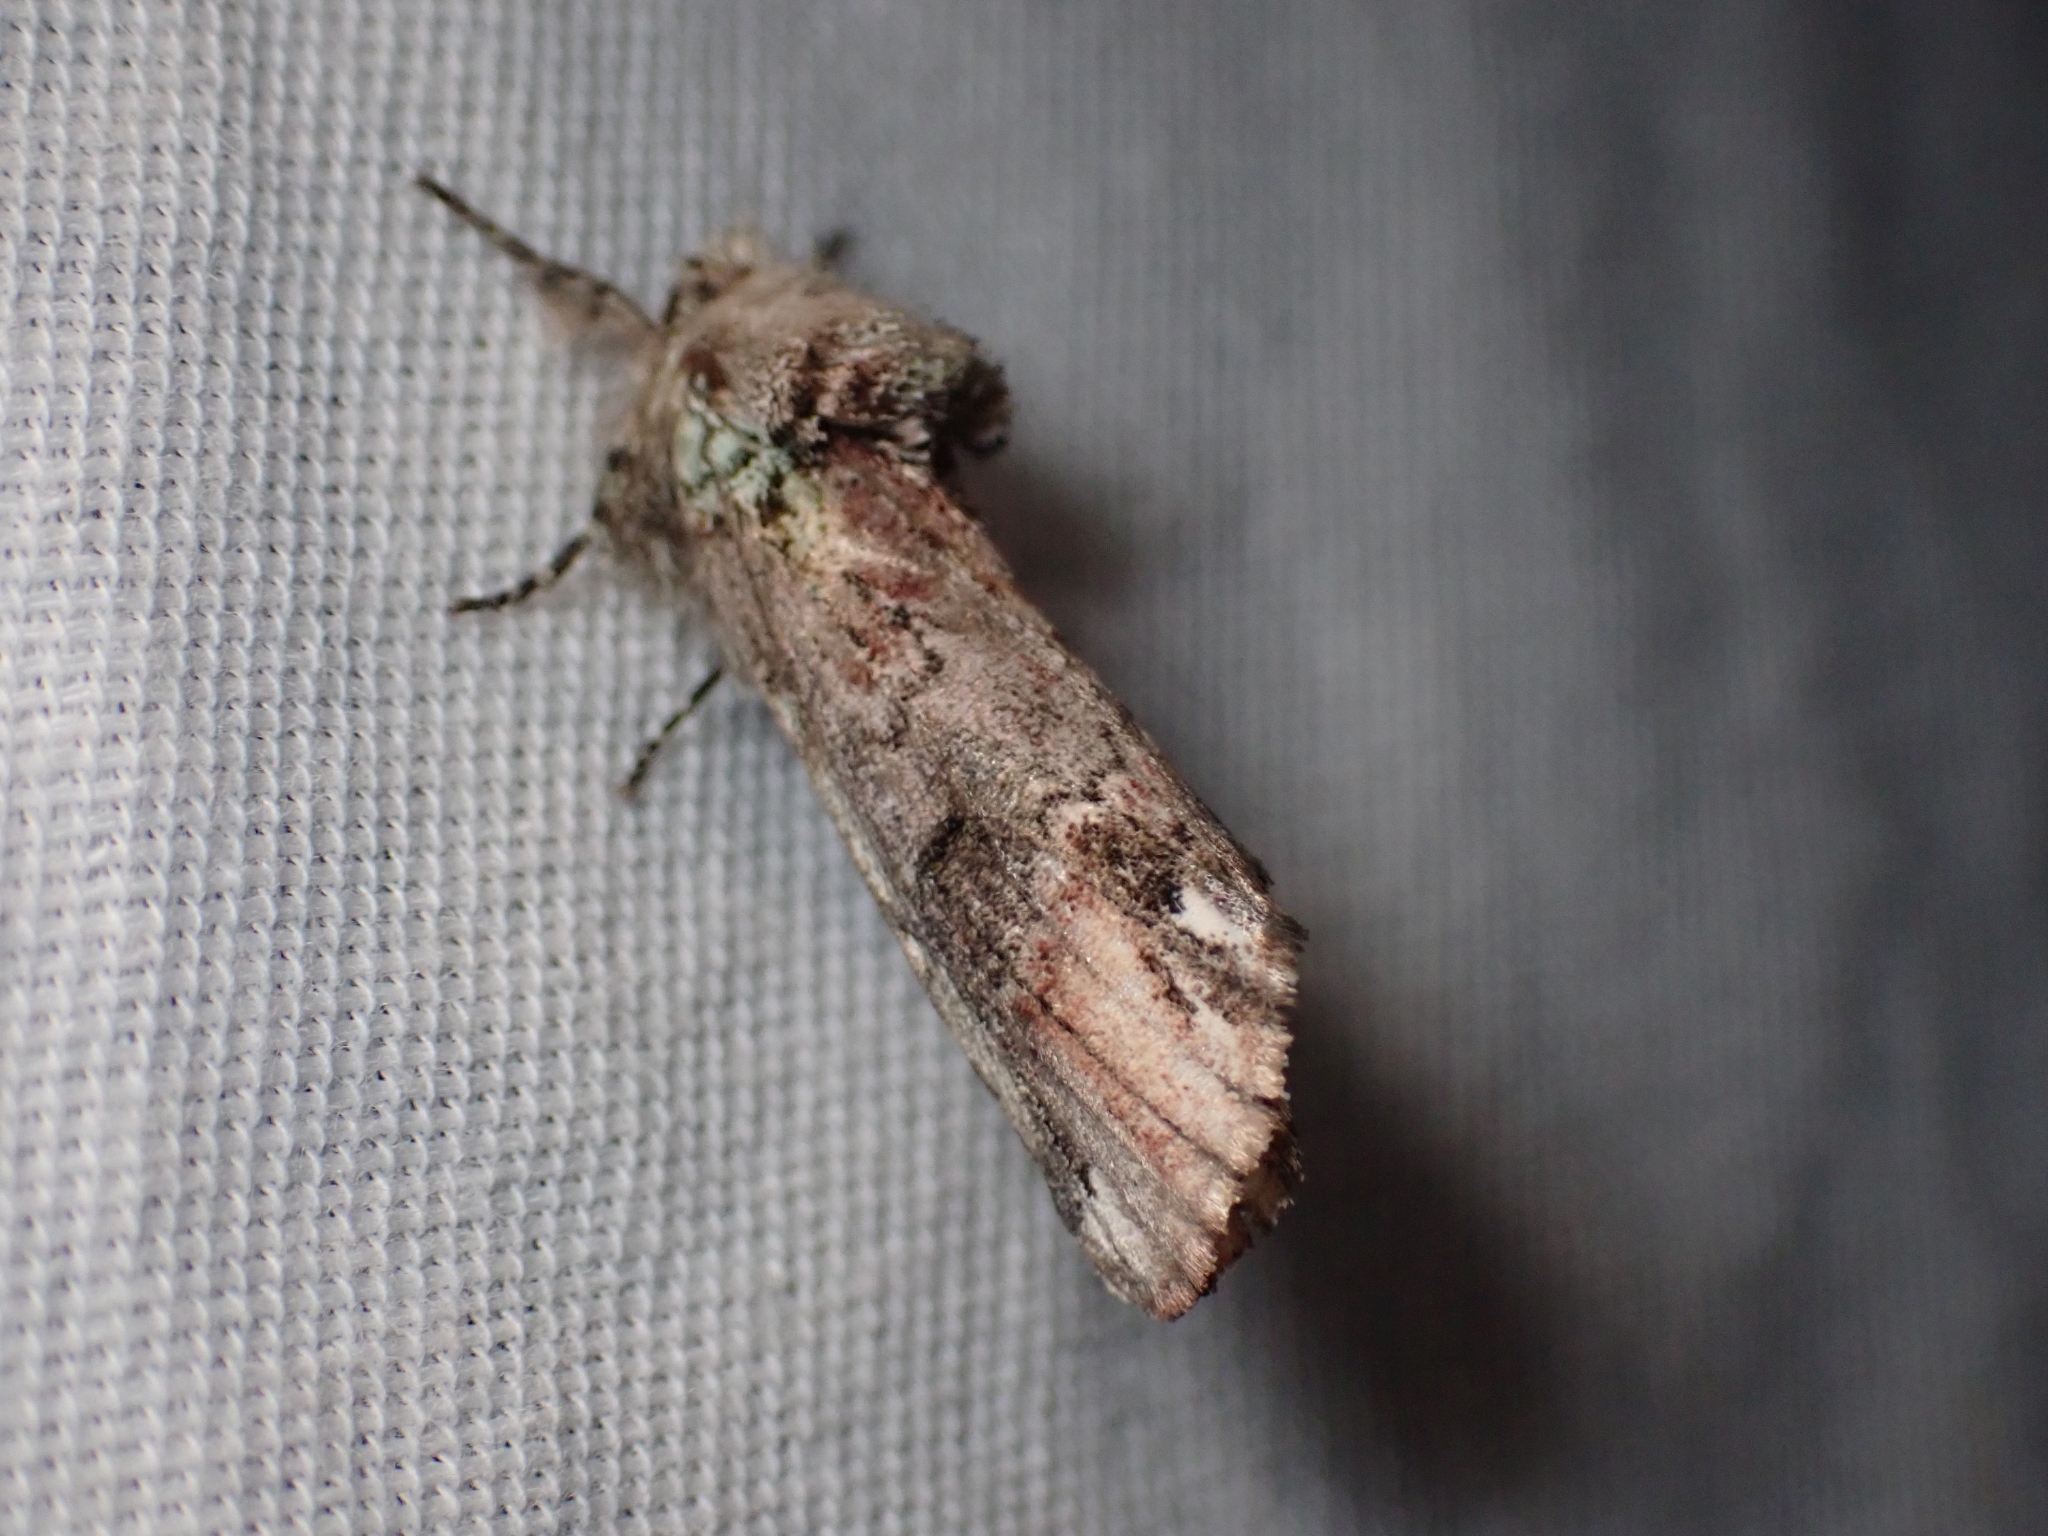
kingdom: Animalia
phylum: Arthropoda
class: Insecta
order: Lepidoptera
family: Notodontidae
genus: Schizura
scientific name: Schizura
